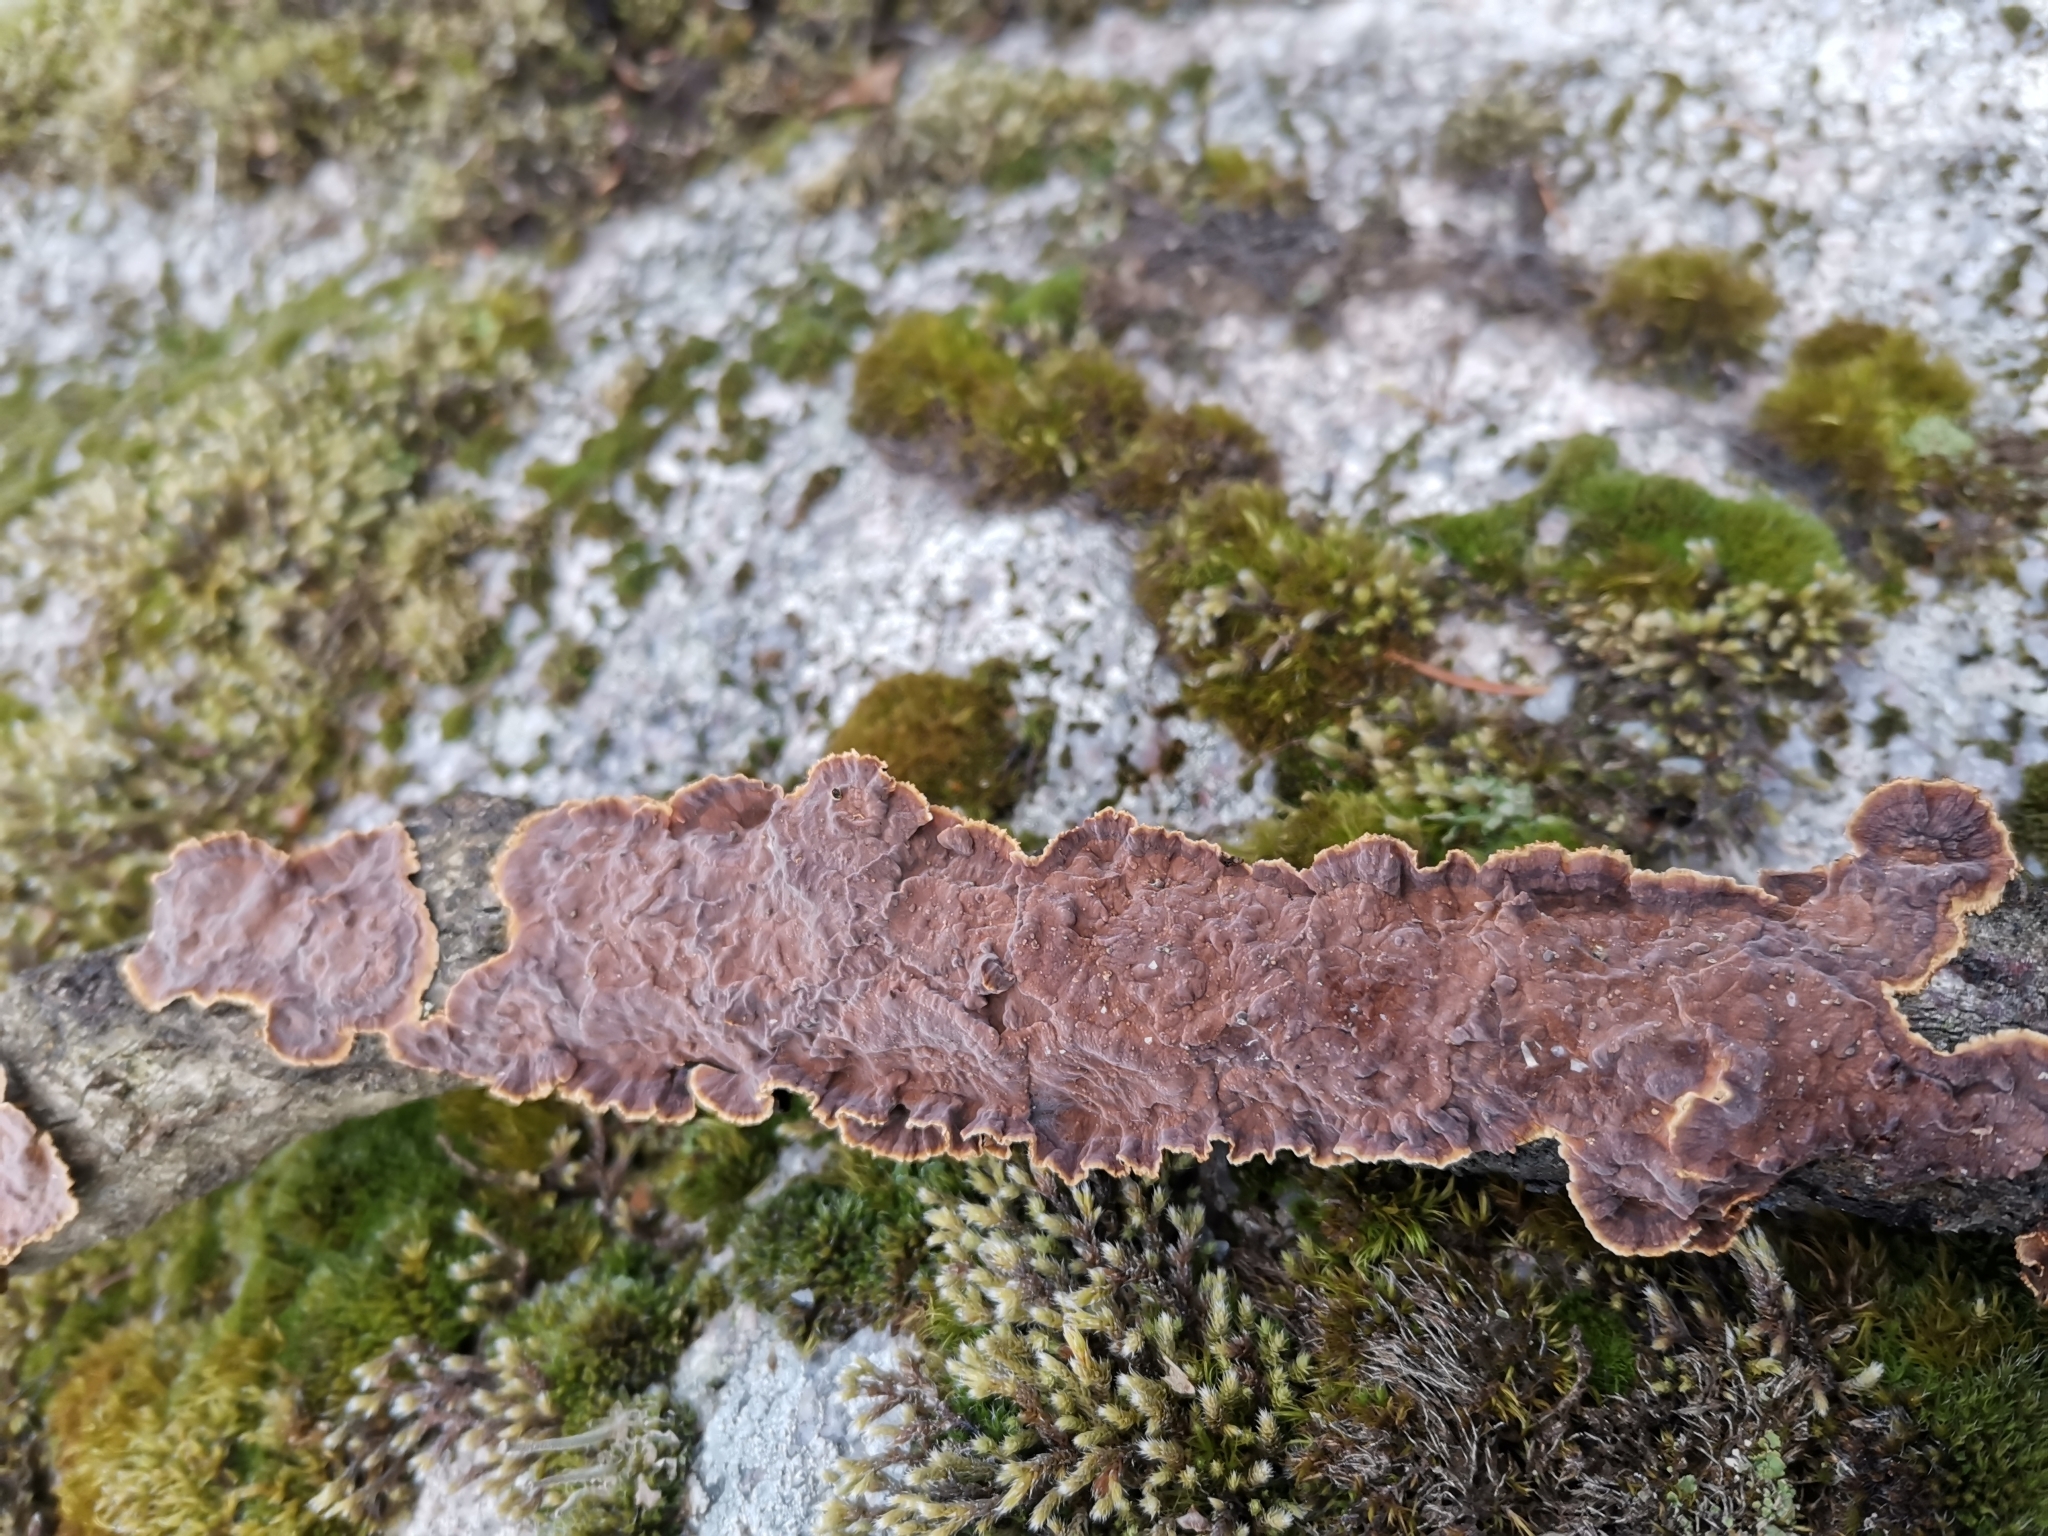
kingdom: Fungi
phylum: Basidiomycota
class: Agaricomycetes
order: Hymenochaetales
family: Hymenochaetaceae
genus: Hydnoporia
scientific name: Hydnoporia tabacina
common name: Willow glue
